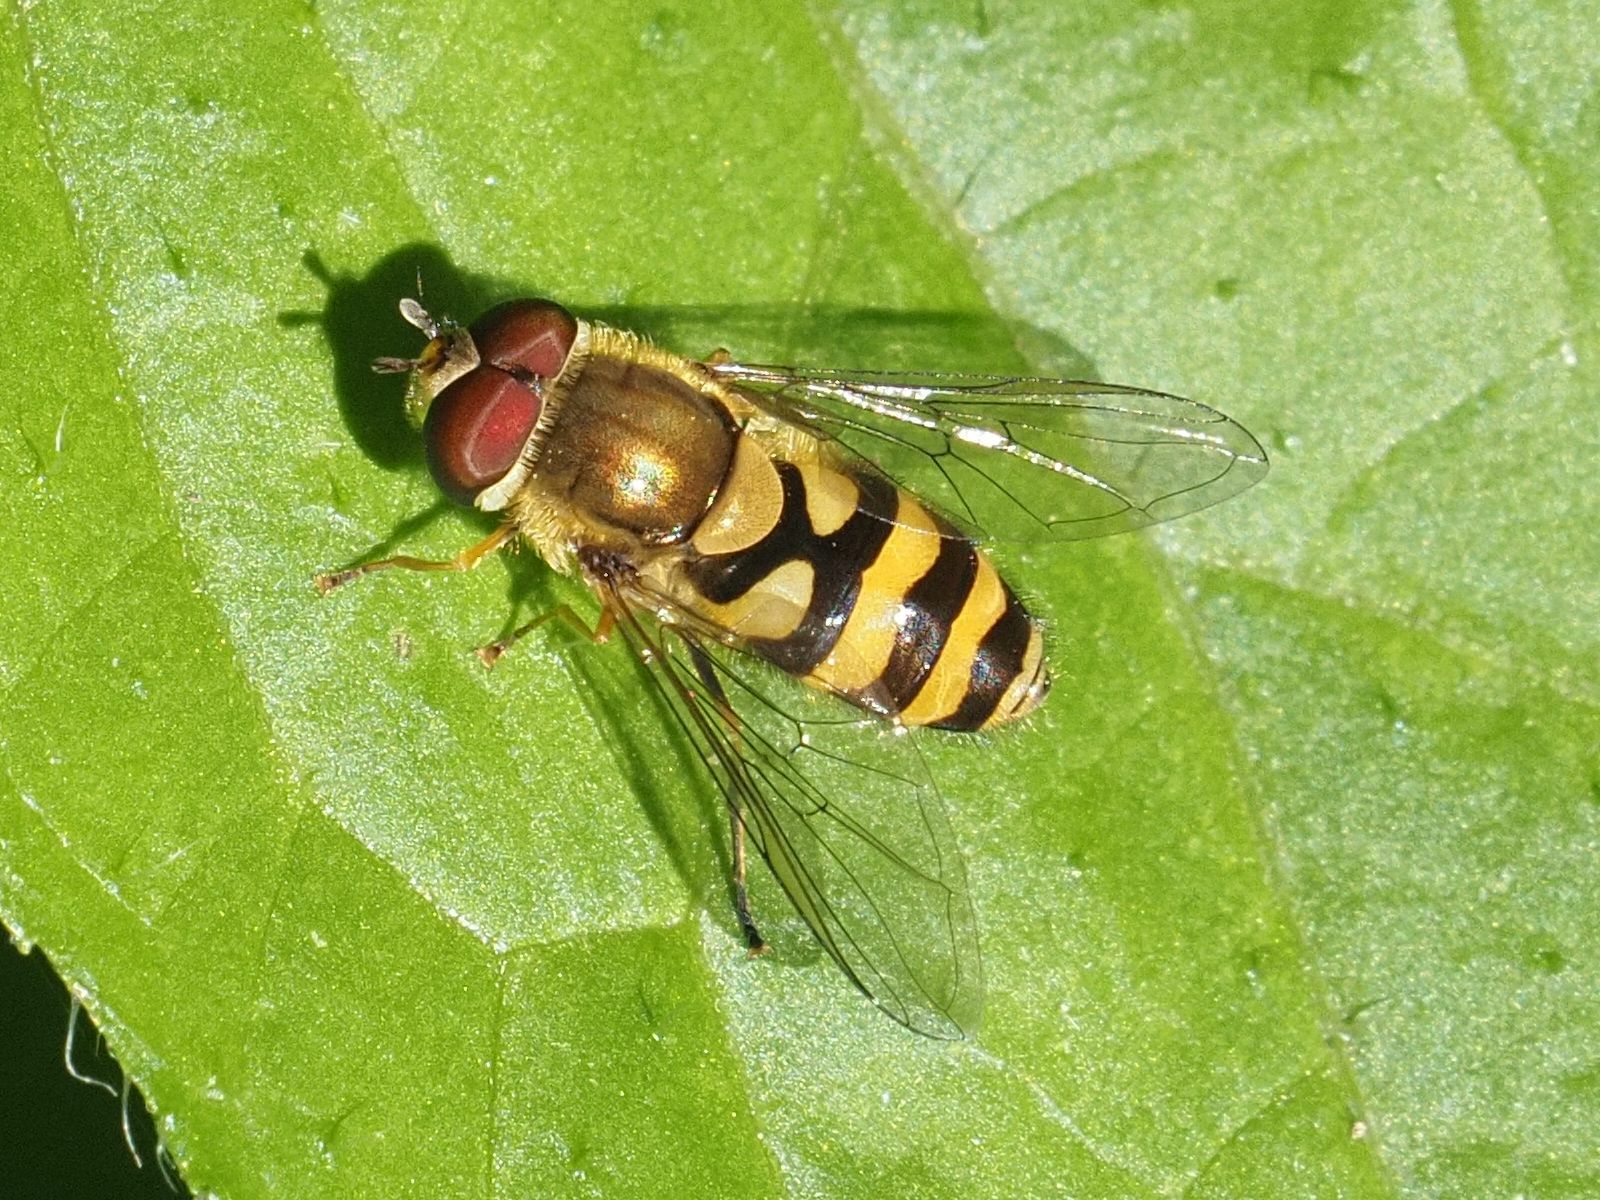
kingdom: Animalia
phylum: Arthropoda
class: Insecta
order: Diptera
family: Syrphidae
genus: Syrphus
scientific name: Syrphus
